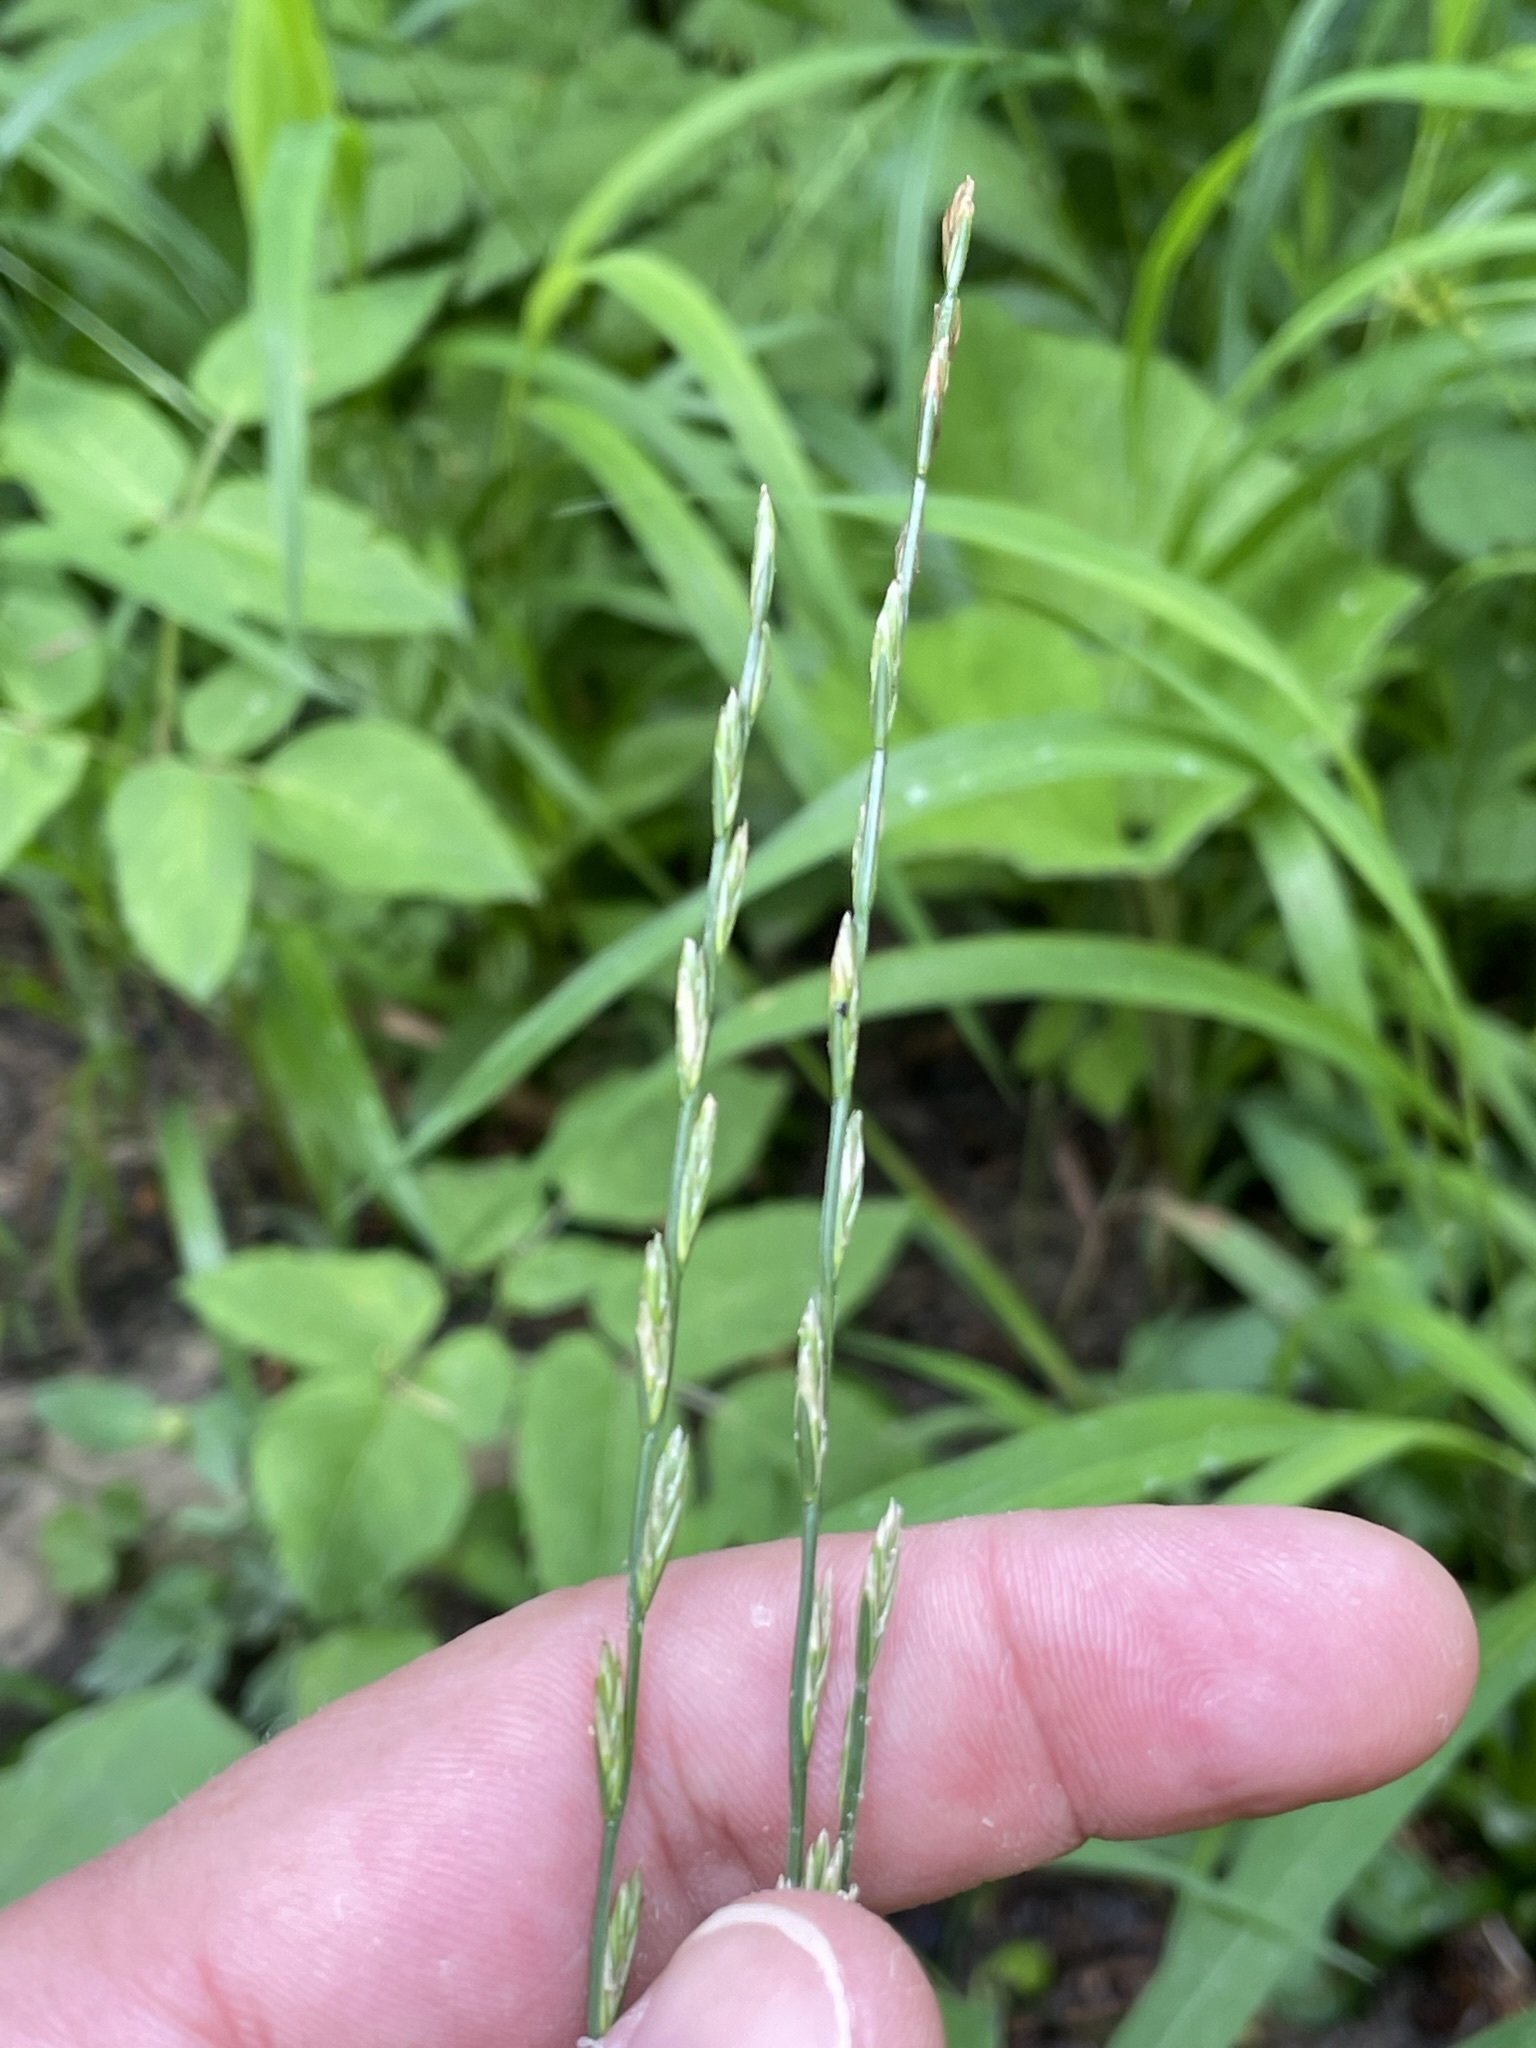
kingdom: Plantae
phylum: Tracheophyta
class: Liliopsida
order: Poales
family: Poaceae
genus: Lolium
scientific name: Lolium perenne
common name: Perennial ryegrass
